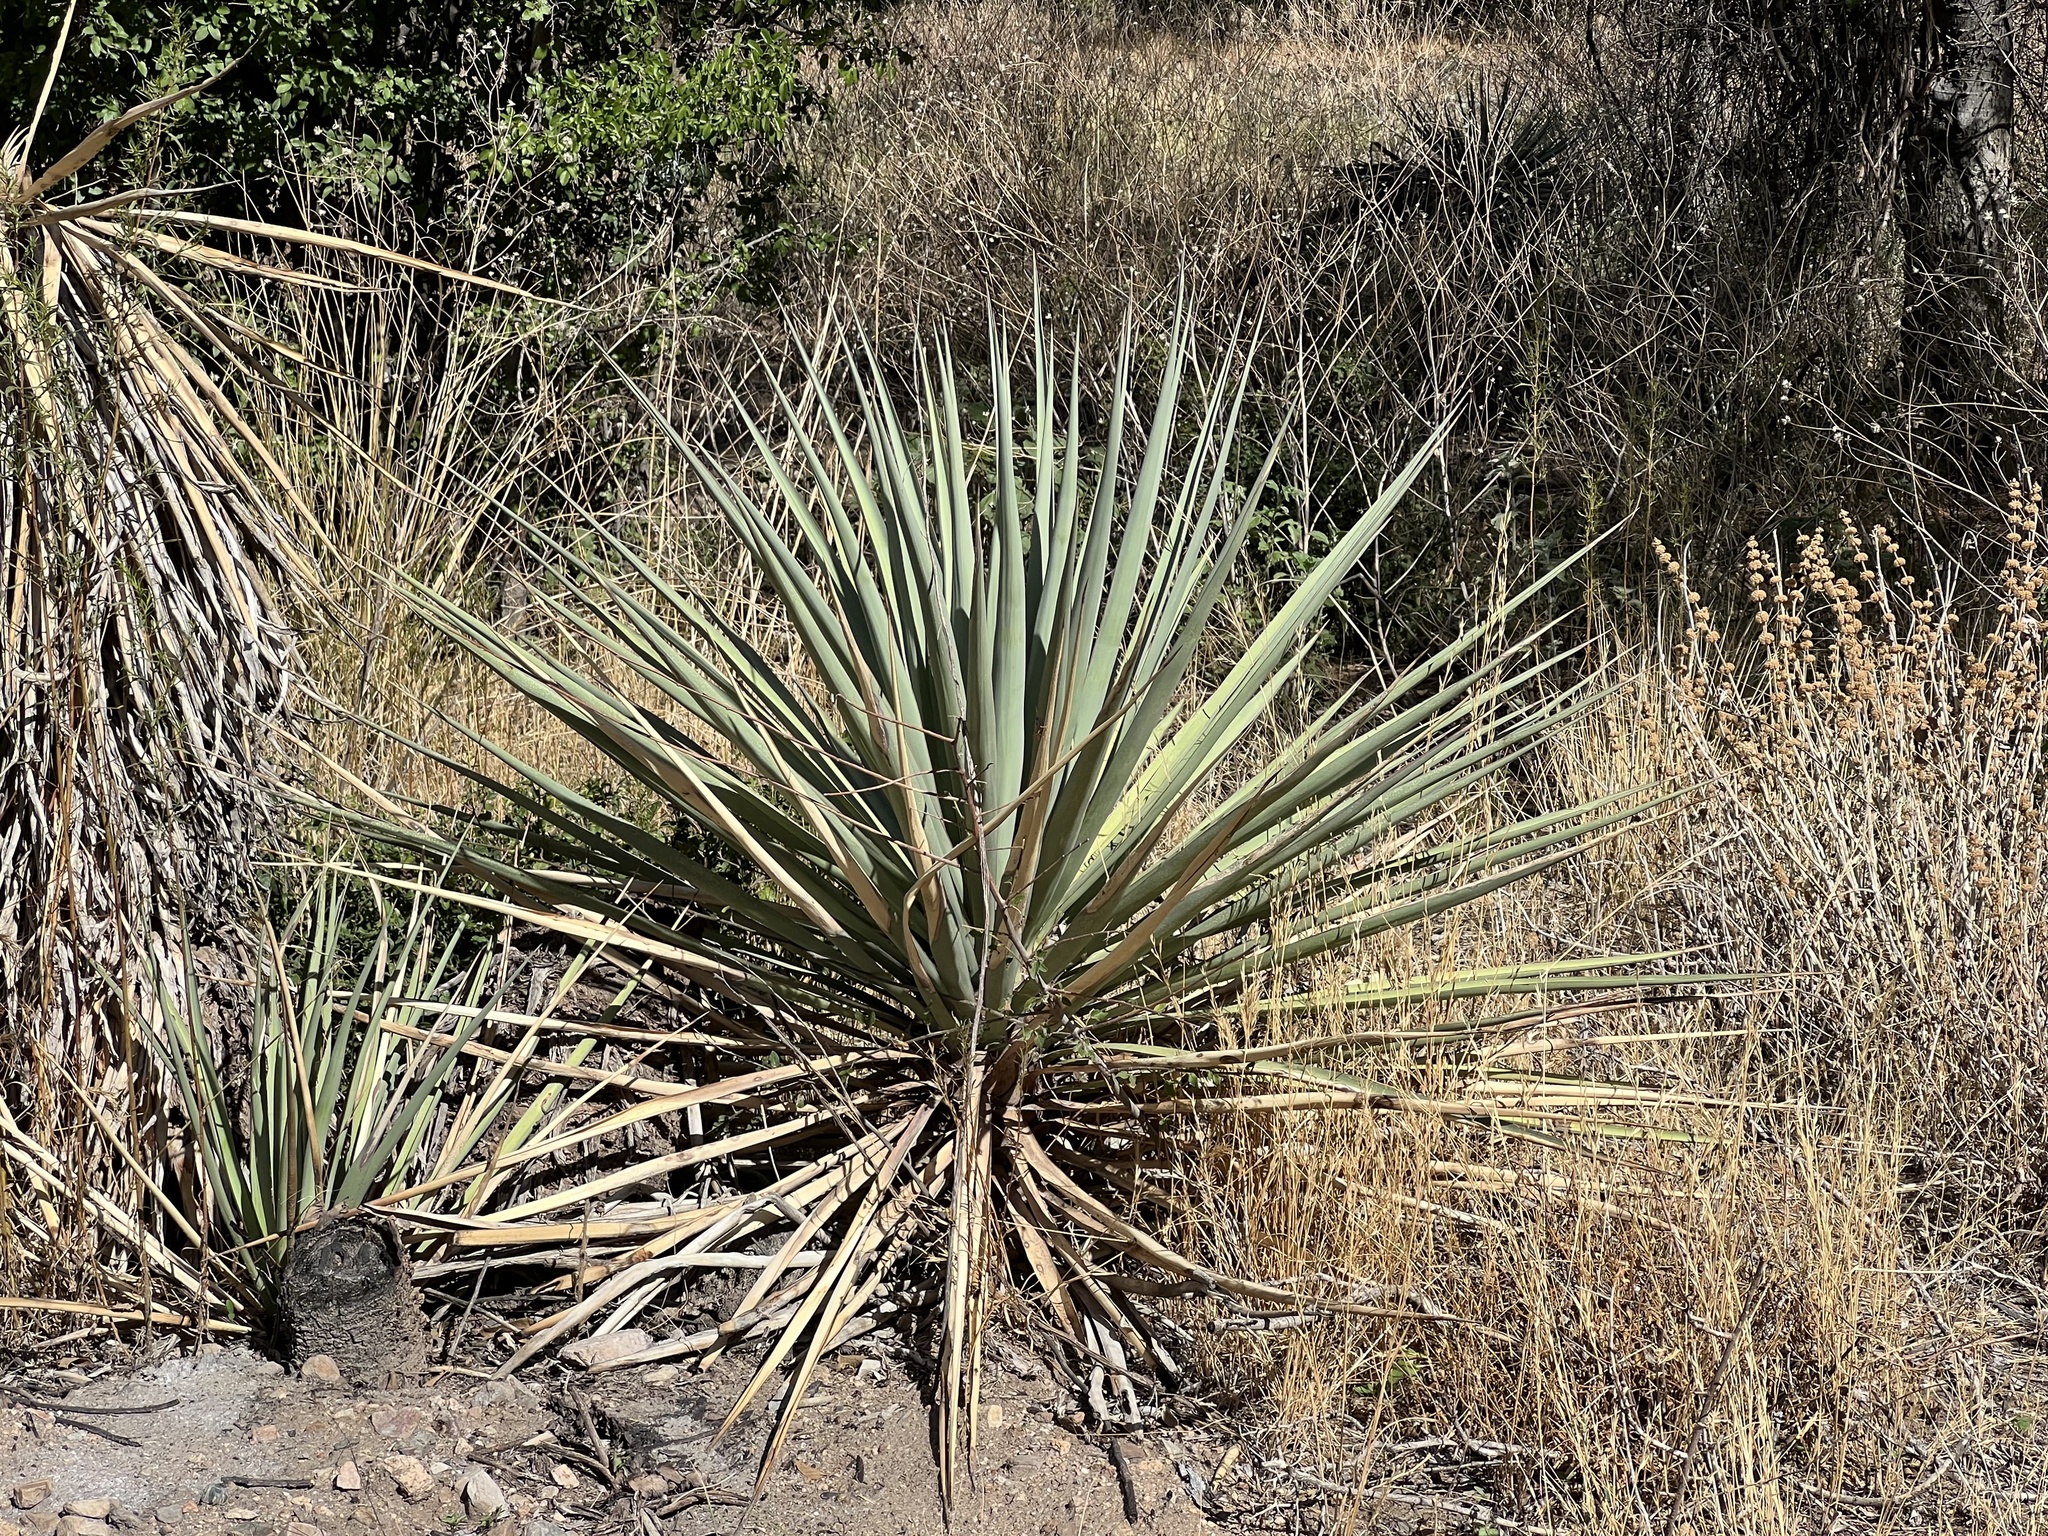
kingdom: Plantae
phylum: Tracheophyta
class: Liliopsida
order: Asparagales
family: Asparagaceae
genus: Yucca
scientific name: Yucca schottii
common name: Hoary yucca
